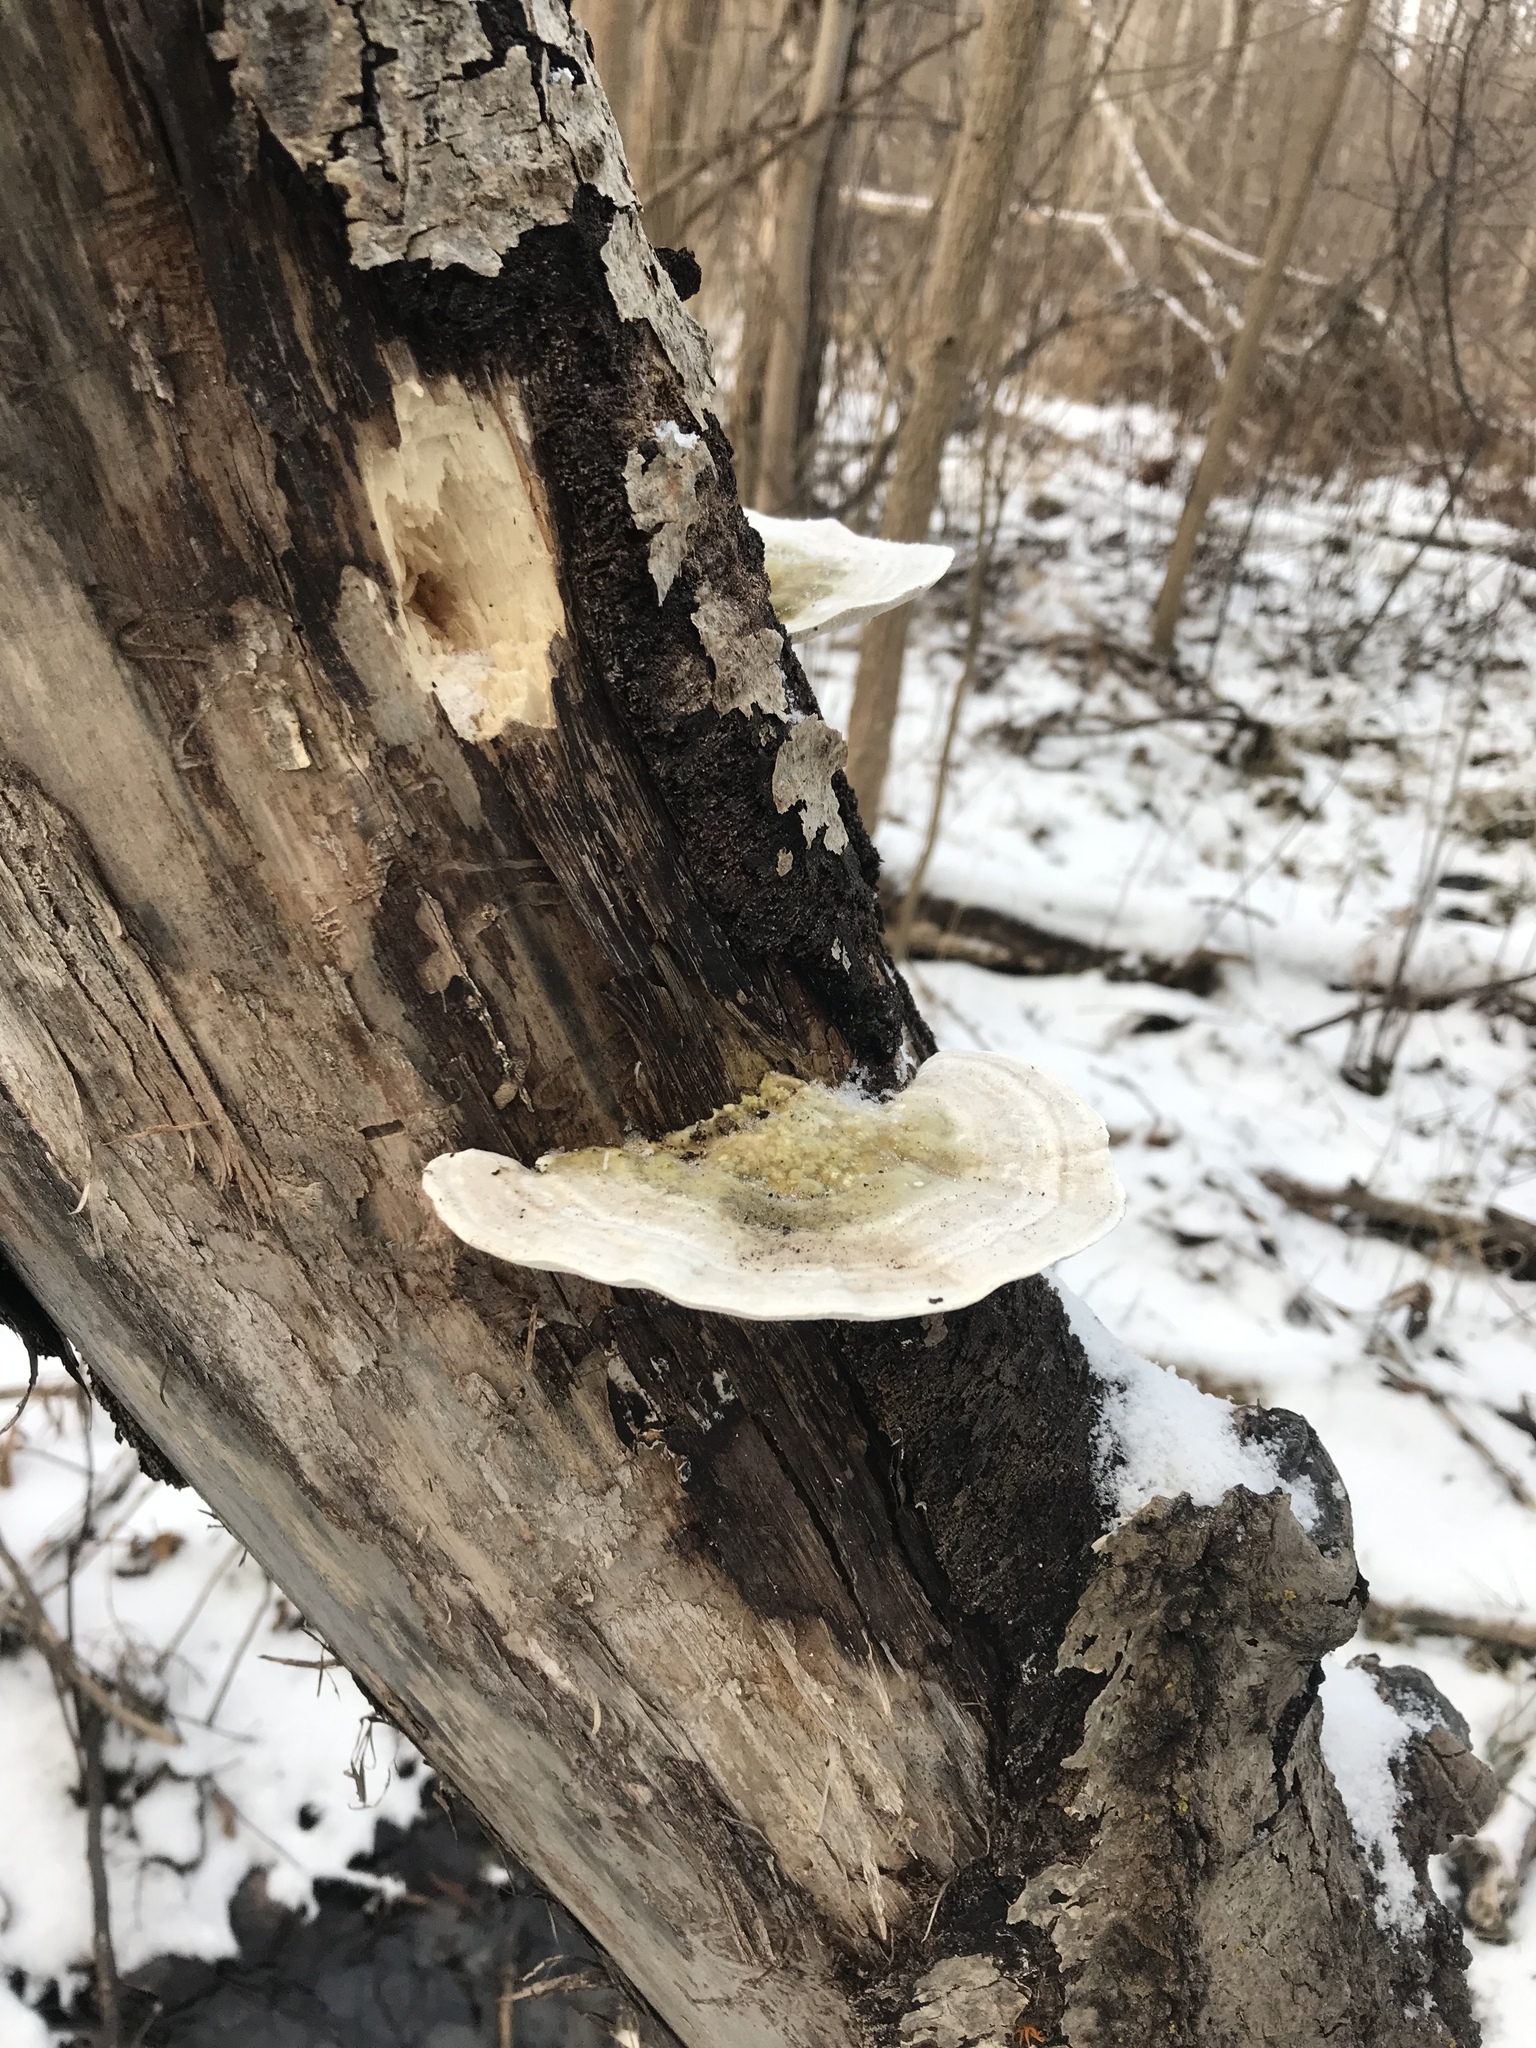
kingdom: Fungi
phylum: Basidiomycota
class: Agaricomycetes
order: Polyporales
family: Polyporaceae
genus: Trametes
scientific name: Trametes gibbosa
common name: Lumpy bracket
